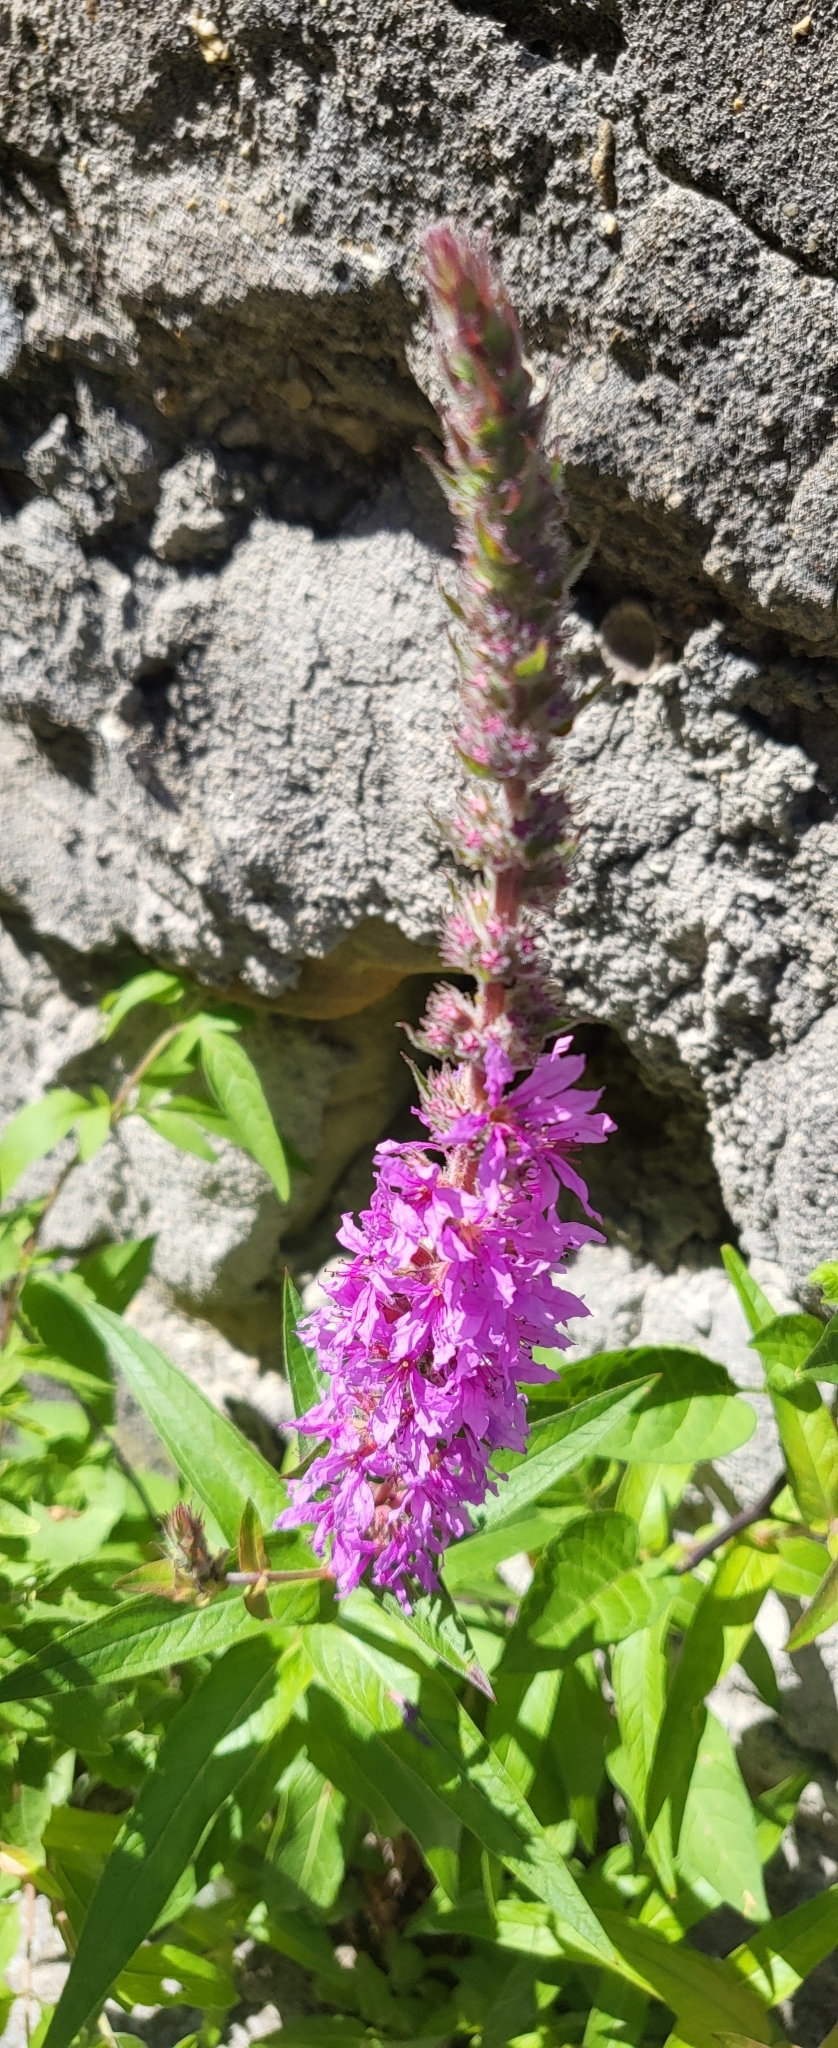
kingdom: Plantae
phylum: Tracheophyta
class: Magnoliopsida
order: Myrtales
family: Lythraceae
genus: Lythrum
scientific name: Lythrum salicaria
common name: Purple loosestrife
